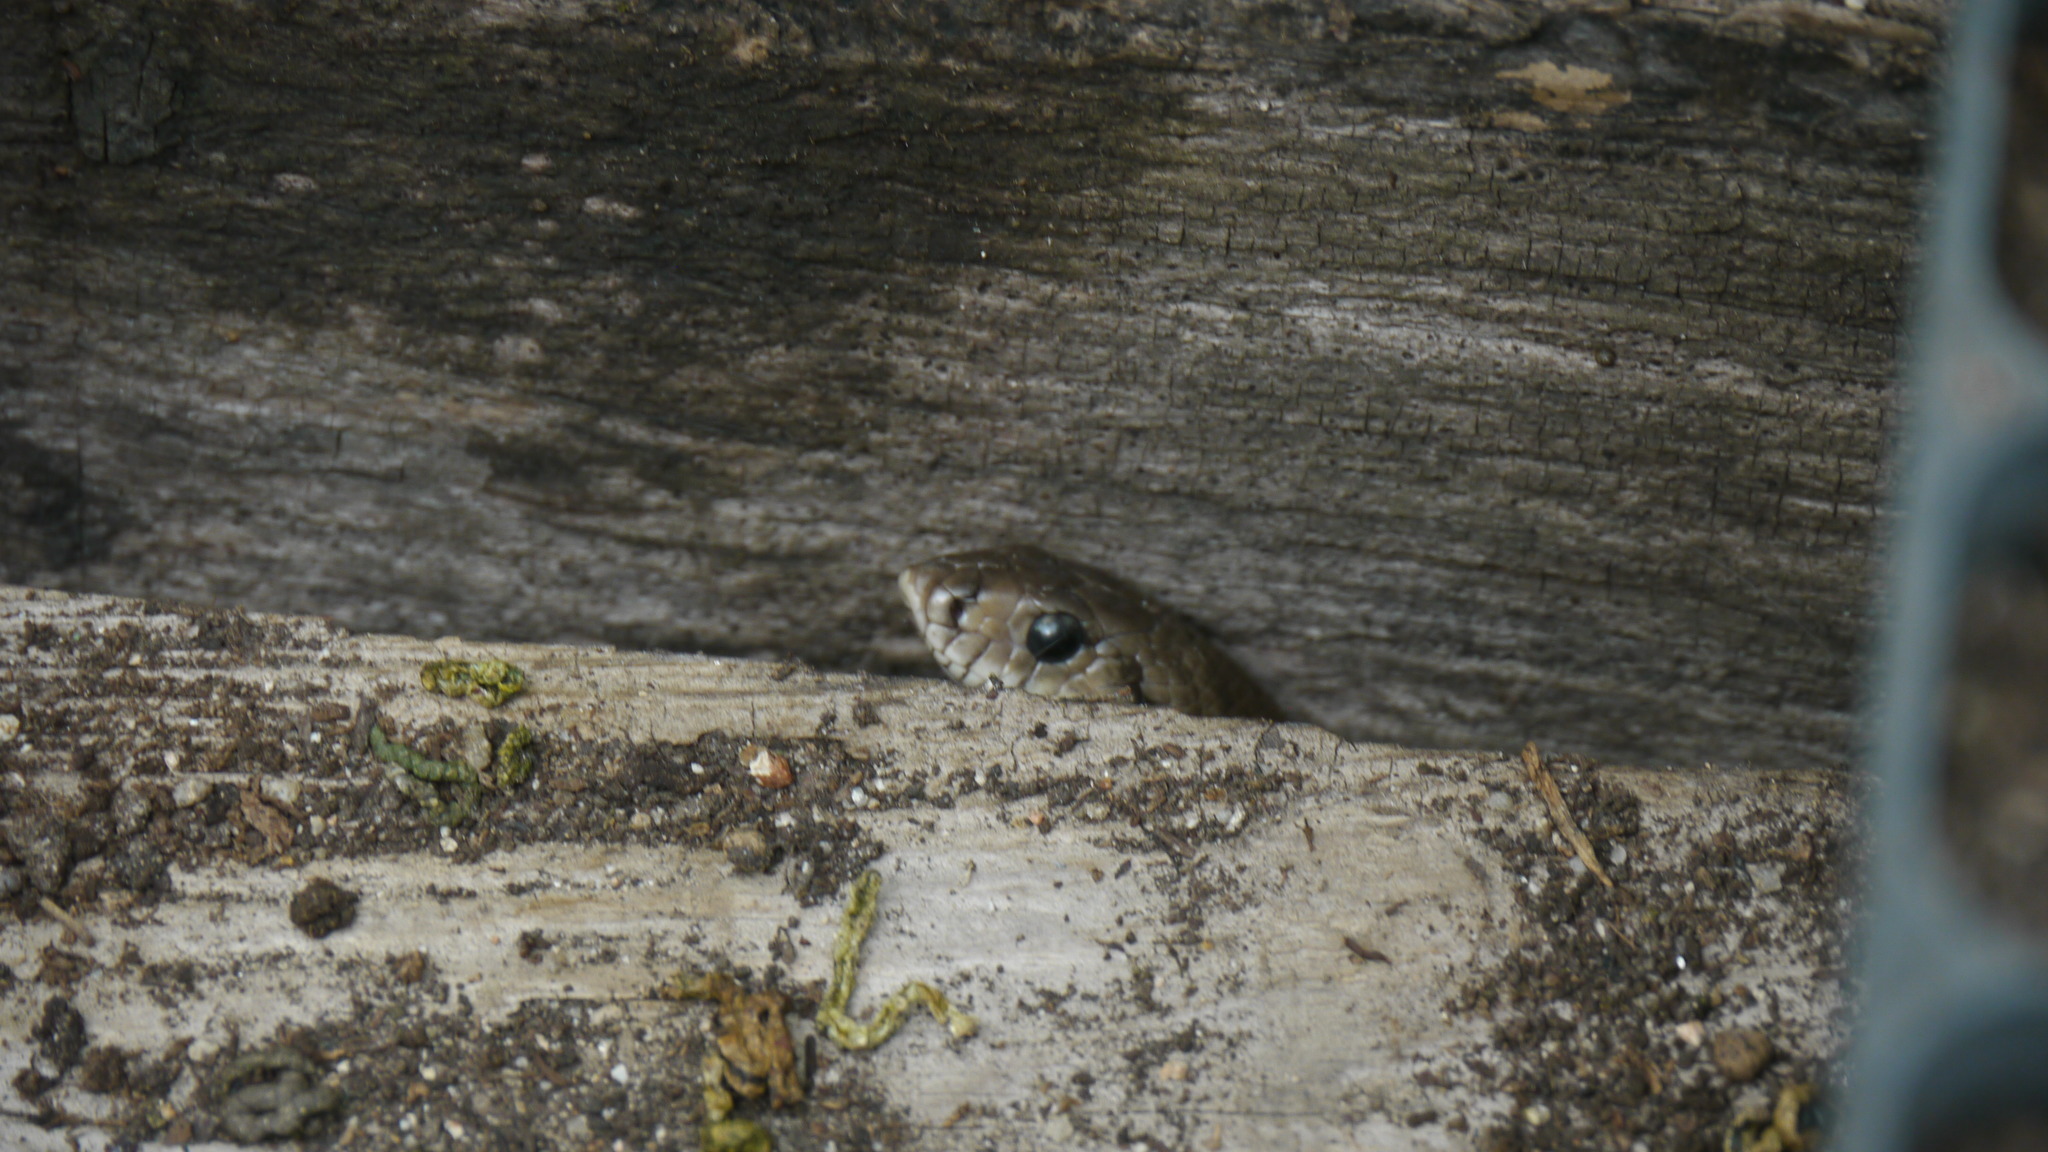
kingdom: Animalia
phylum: Chordata
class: Squamata
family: Colubridae
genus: Zamenis
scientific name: Zamenis scalaris
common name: Ladder snakes
